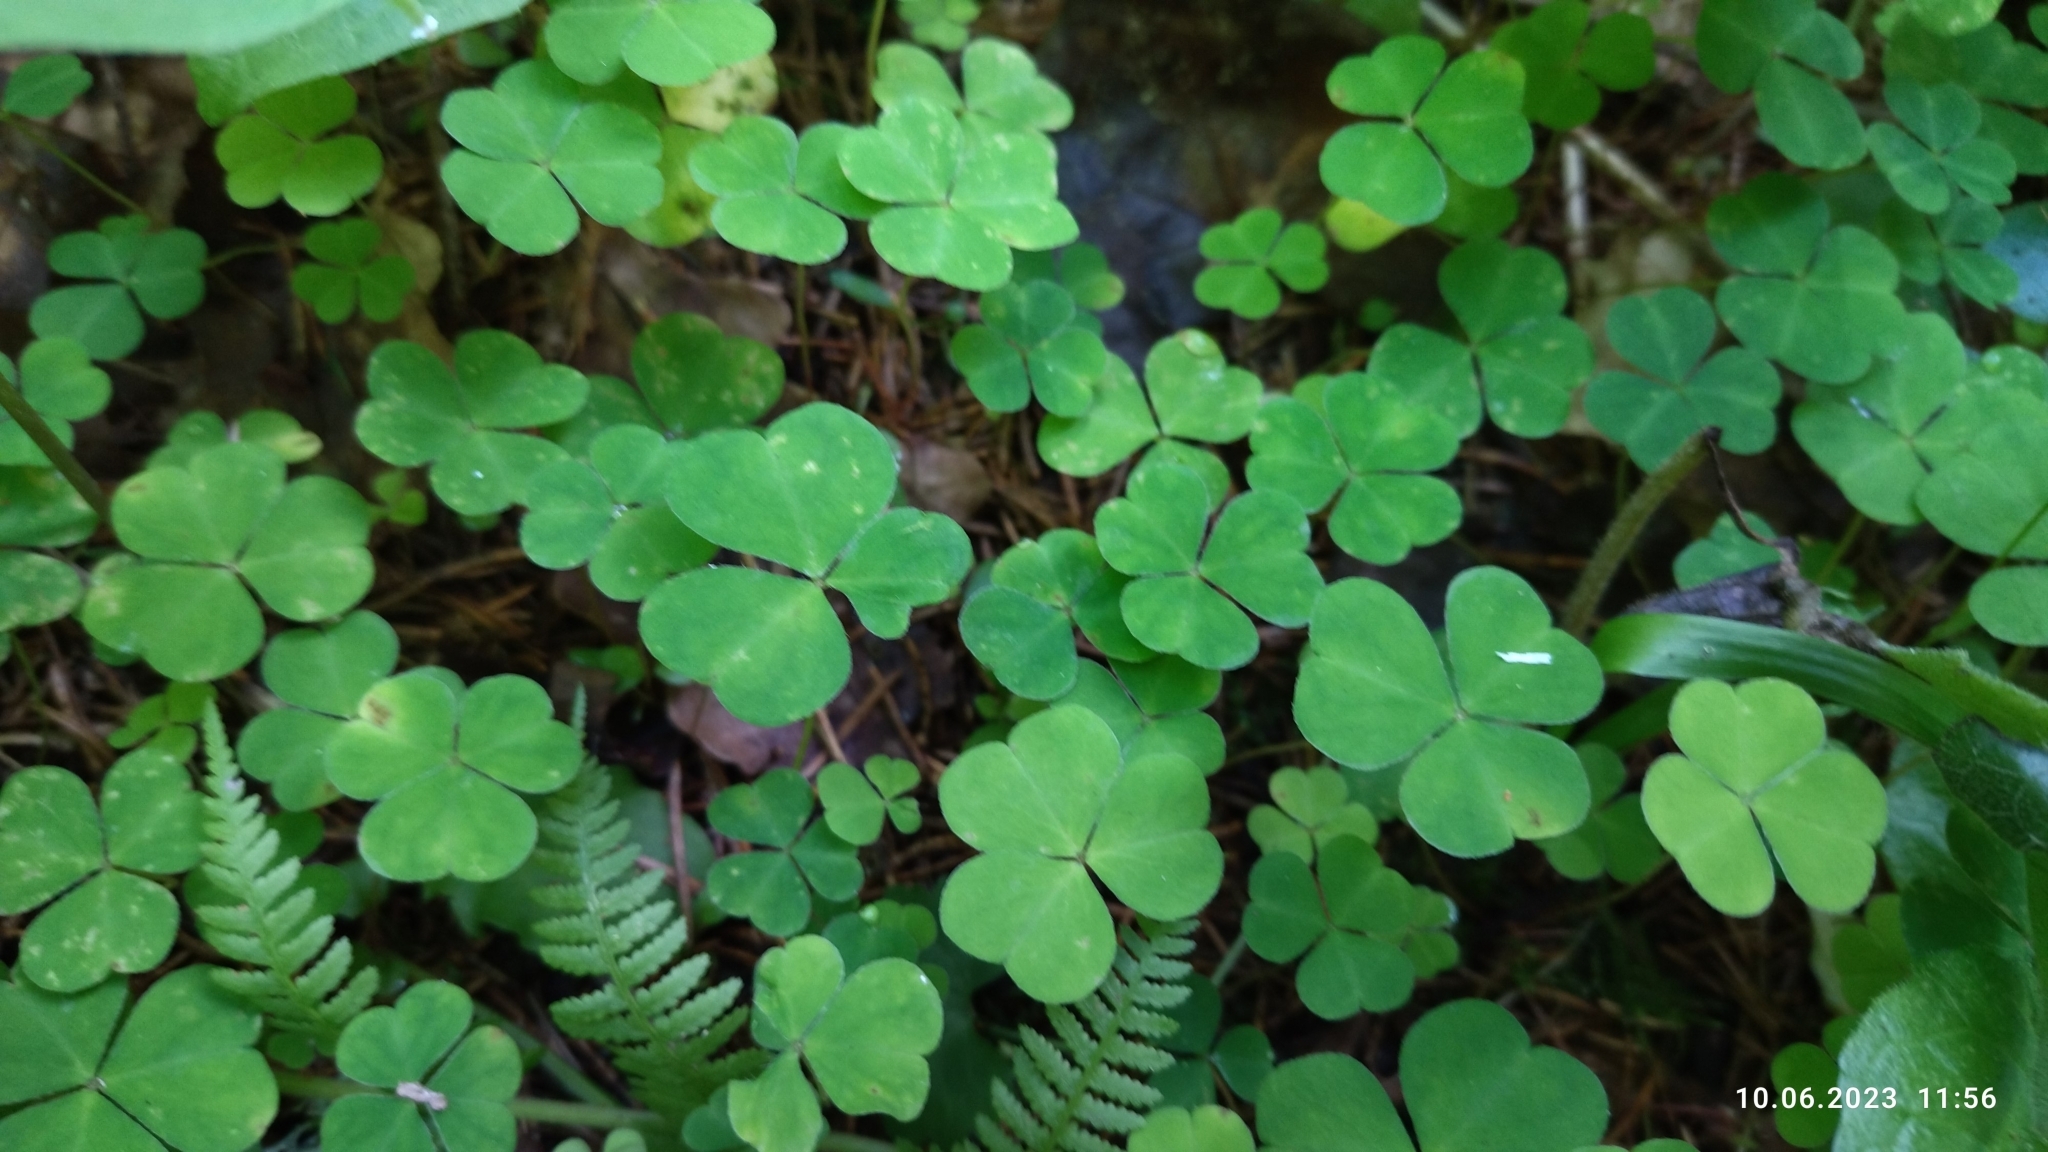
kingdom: Plantae
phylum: Tracheophyta
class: Magnoliopsida
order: Oxalidales
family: Oxalidaceae
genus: Oxalis
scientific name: Oxalis acetosella
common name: Wood-sorrel
